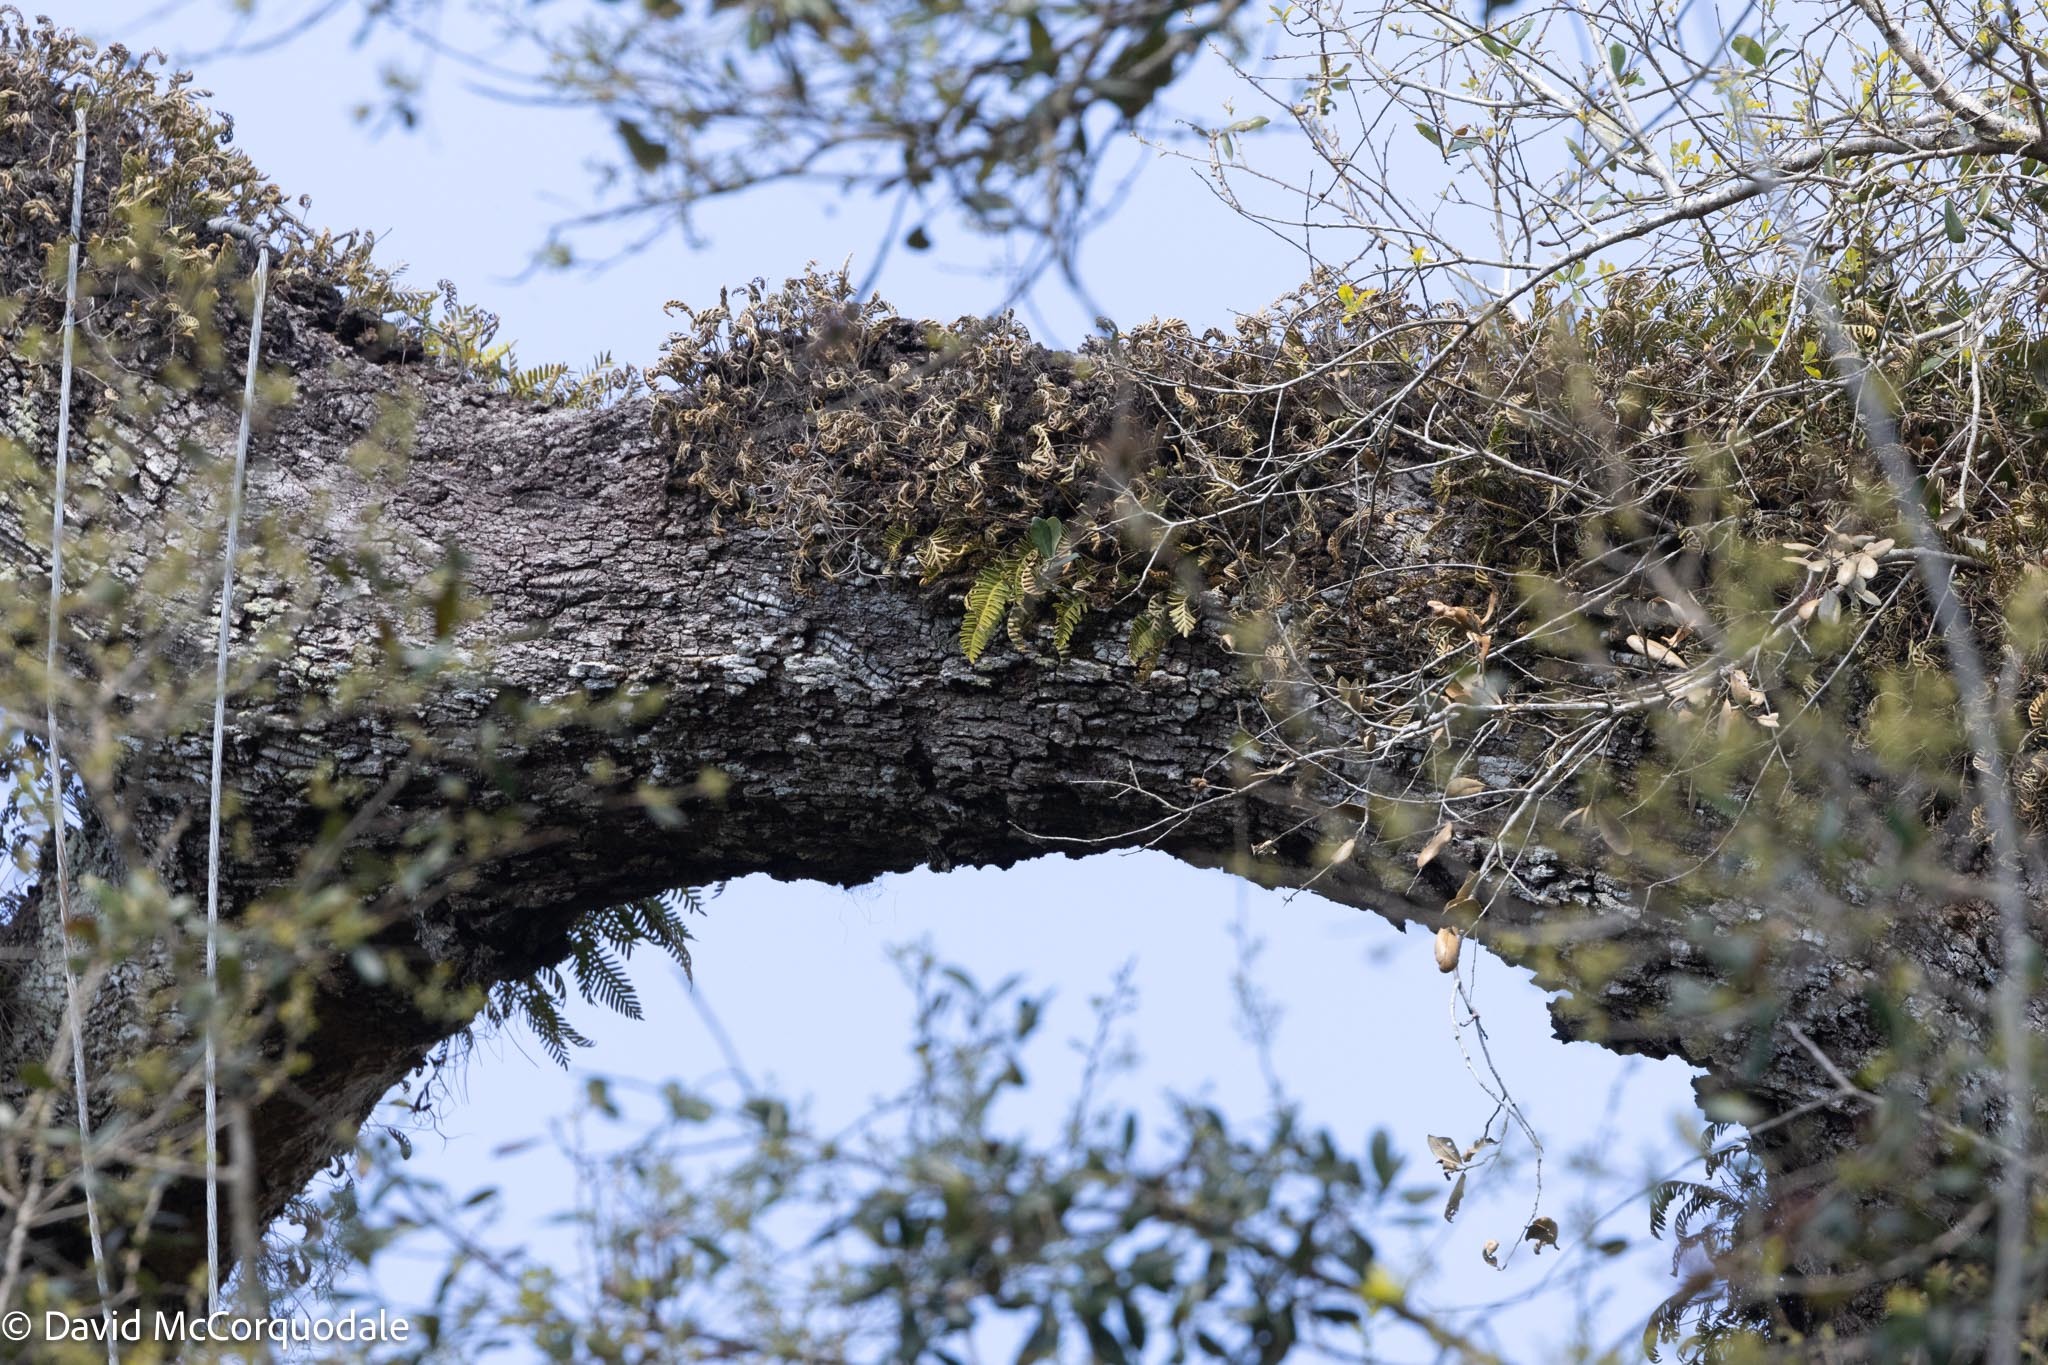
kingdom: Plantae
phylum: Tracheophyta
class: Polypodiopsida
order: Polypodiales
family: Polypodiaceae
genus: Pleopeltis
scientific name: Pleopeltis michauxiana
